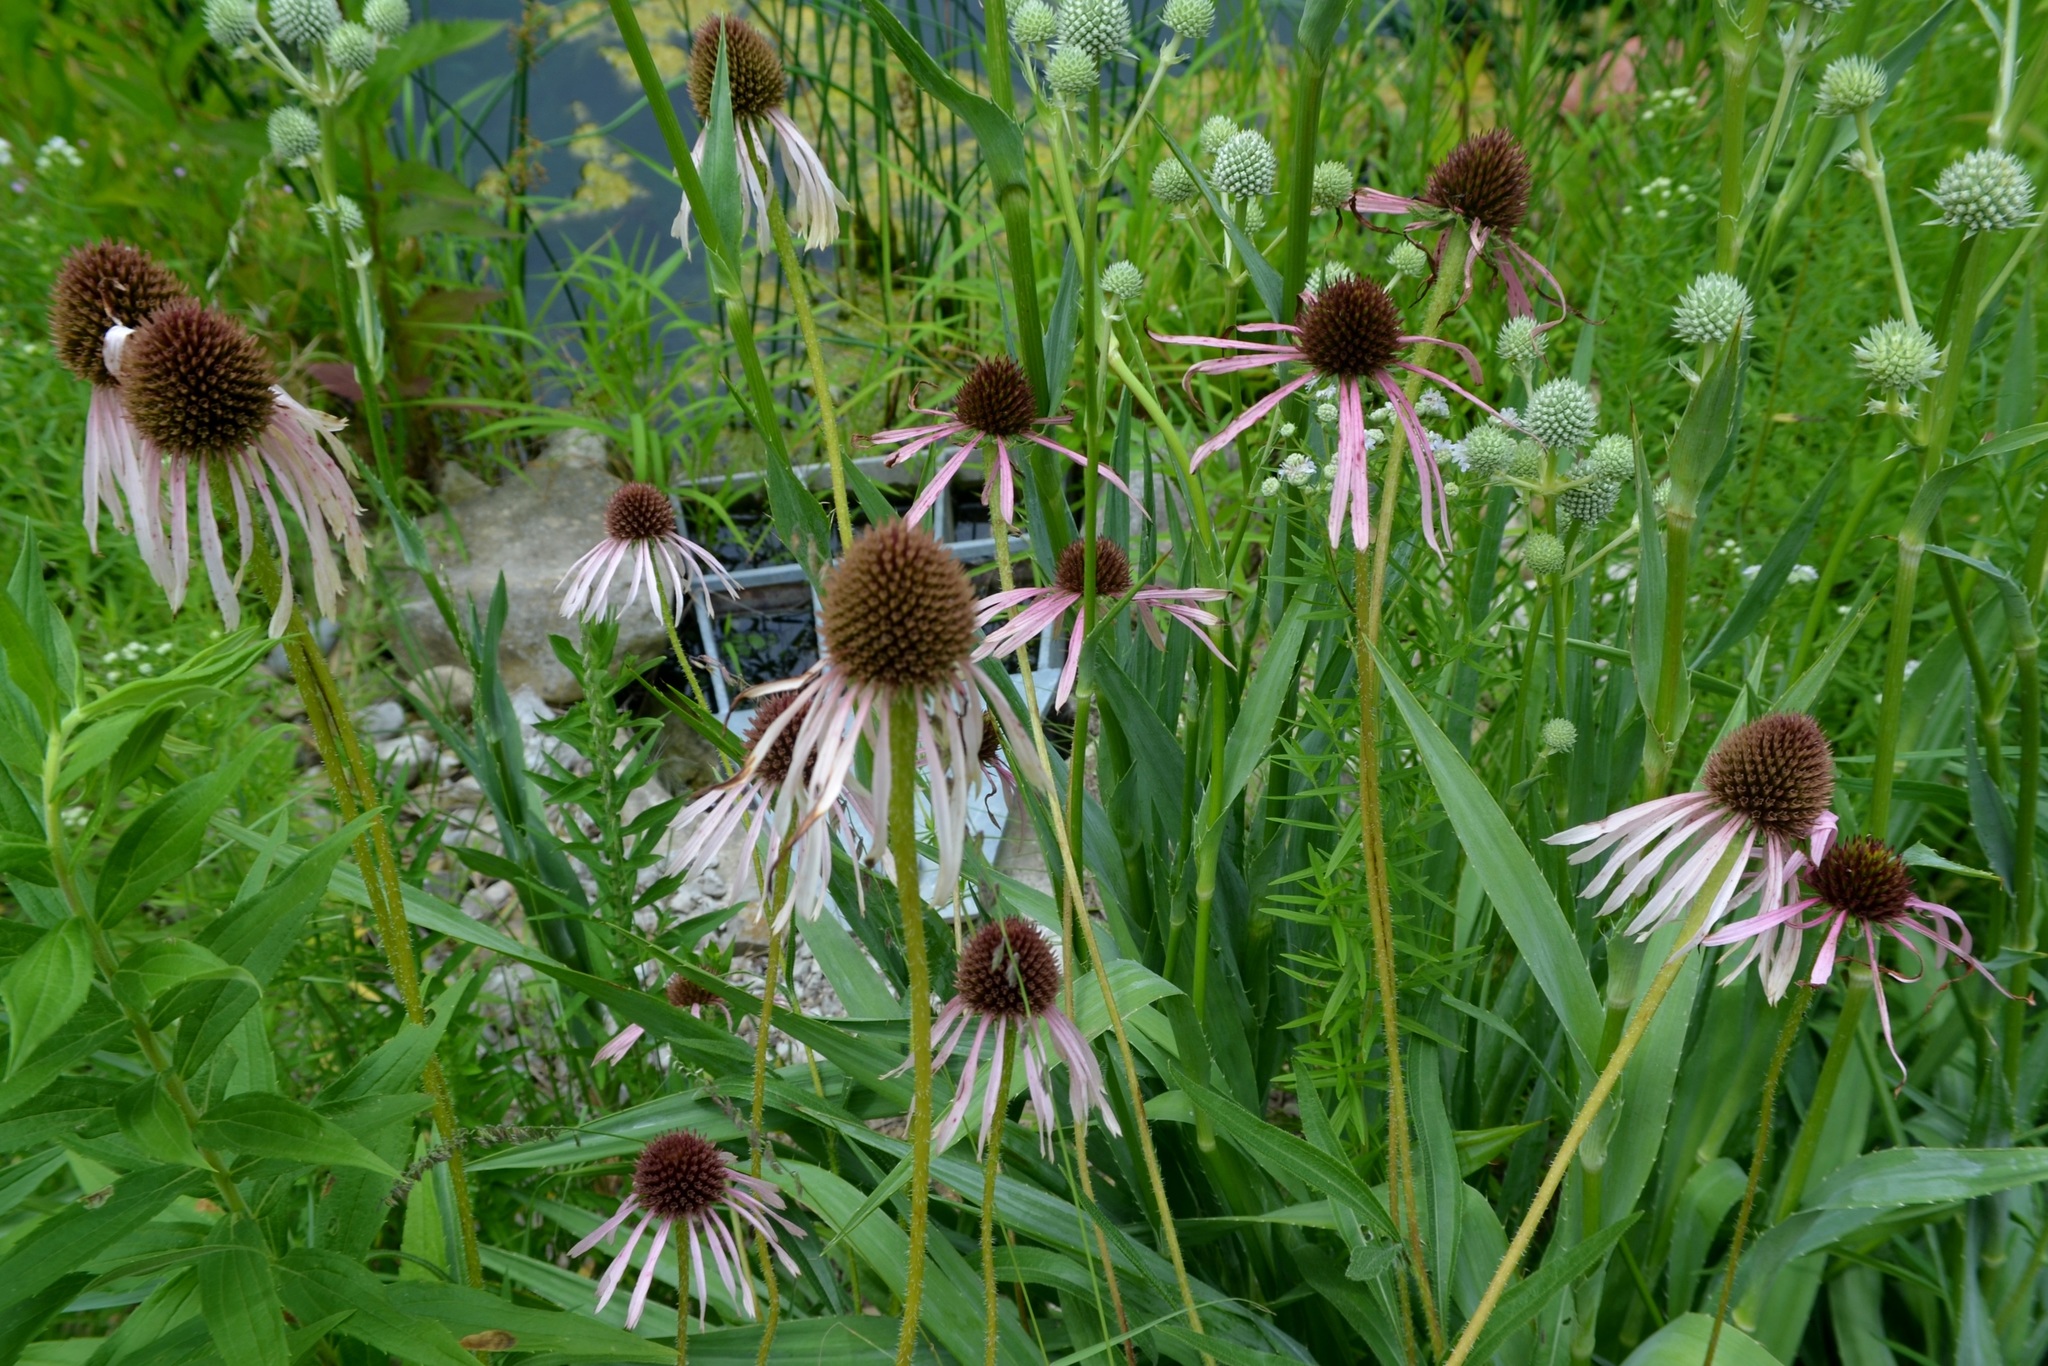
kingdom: Plantae
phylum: Tracheophyta
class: Magnoliopsida
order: Asterales
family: Asteraceae
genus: Echinacea
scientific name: Echinacea pallida
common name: Pale echinacea
